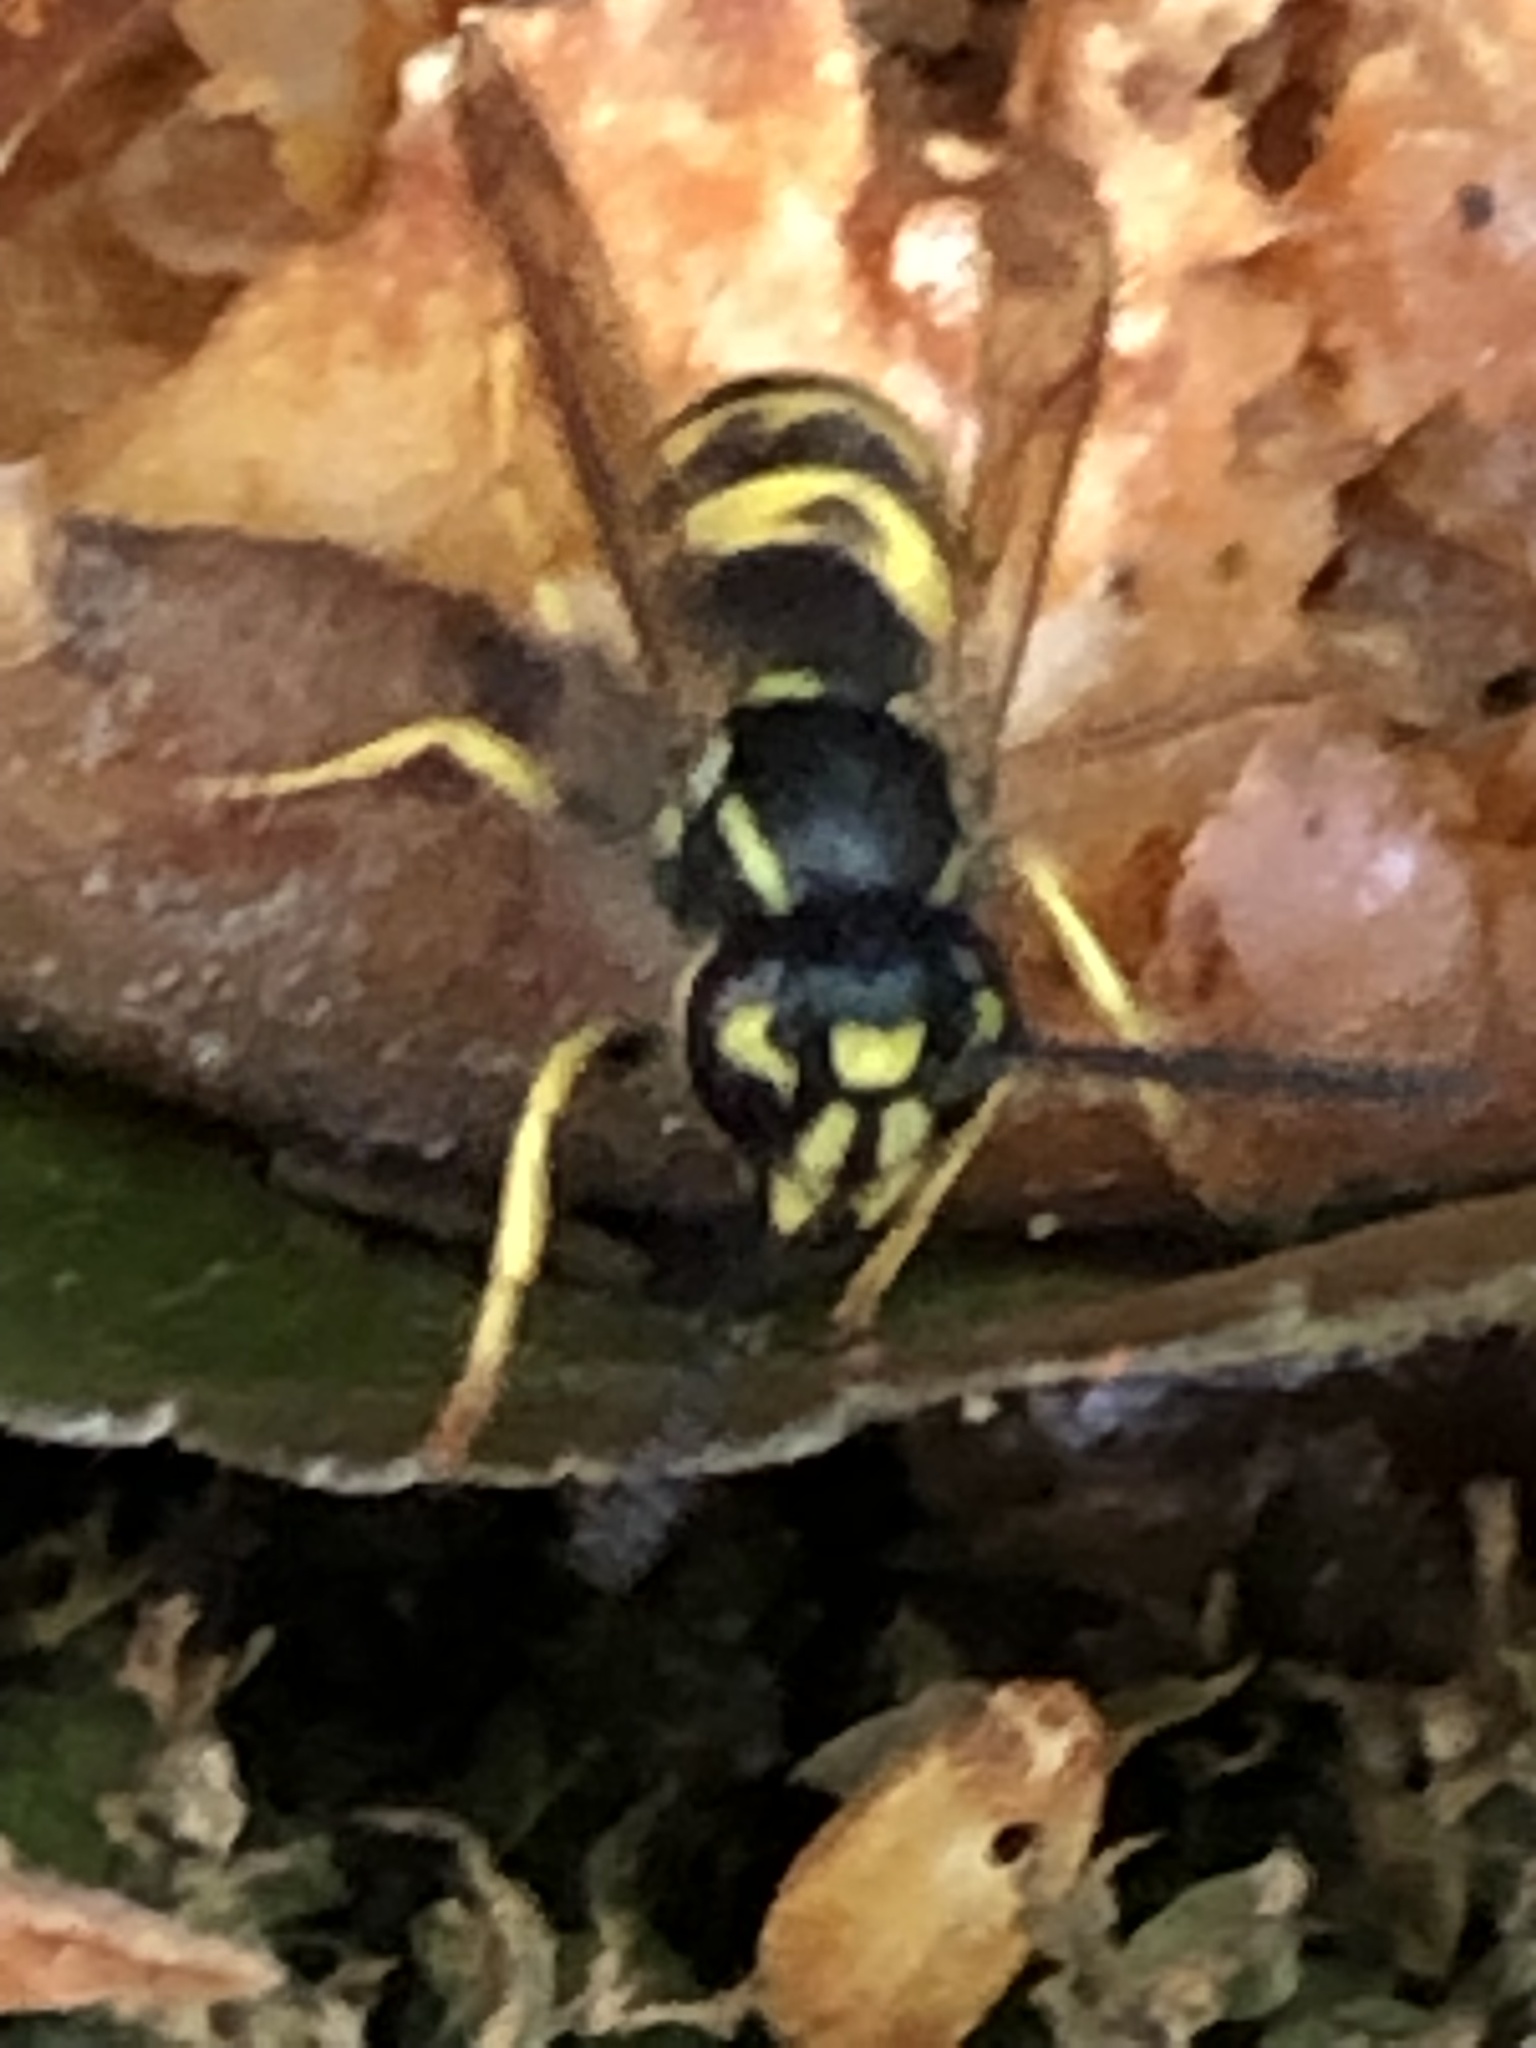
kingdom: Animalia
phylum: Arthropoda
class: Insecta
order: Hymenoptera
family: Vespidae
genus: Vespula
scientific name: Vespula alascensis
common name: Alaska yellowjacket
